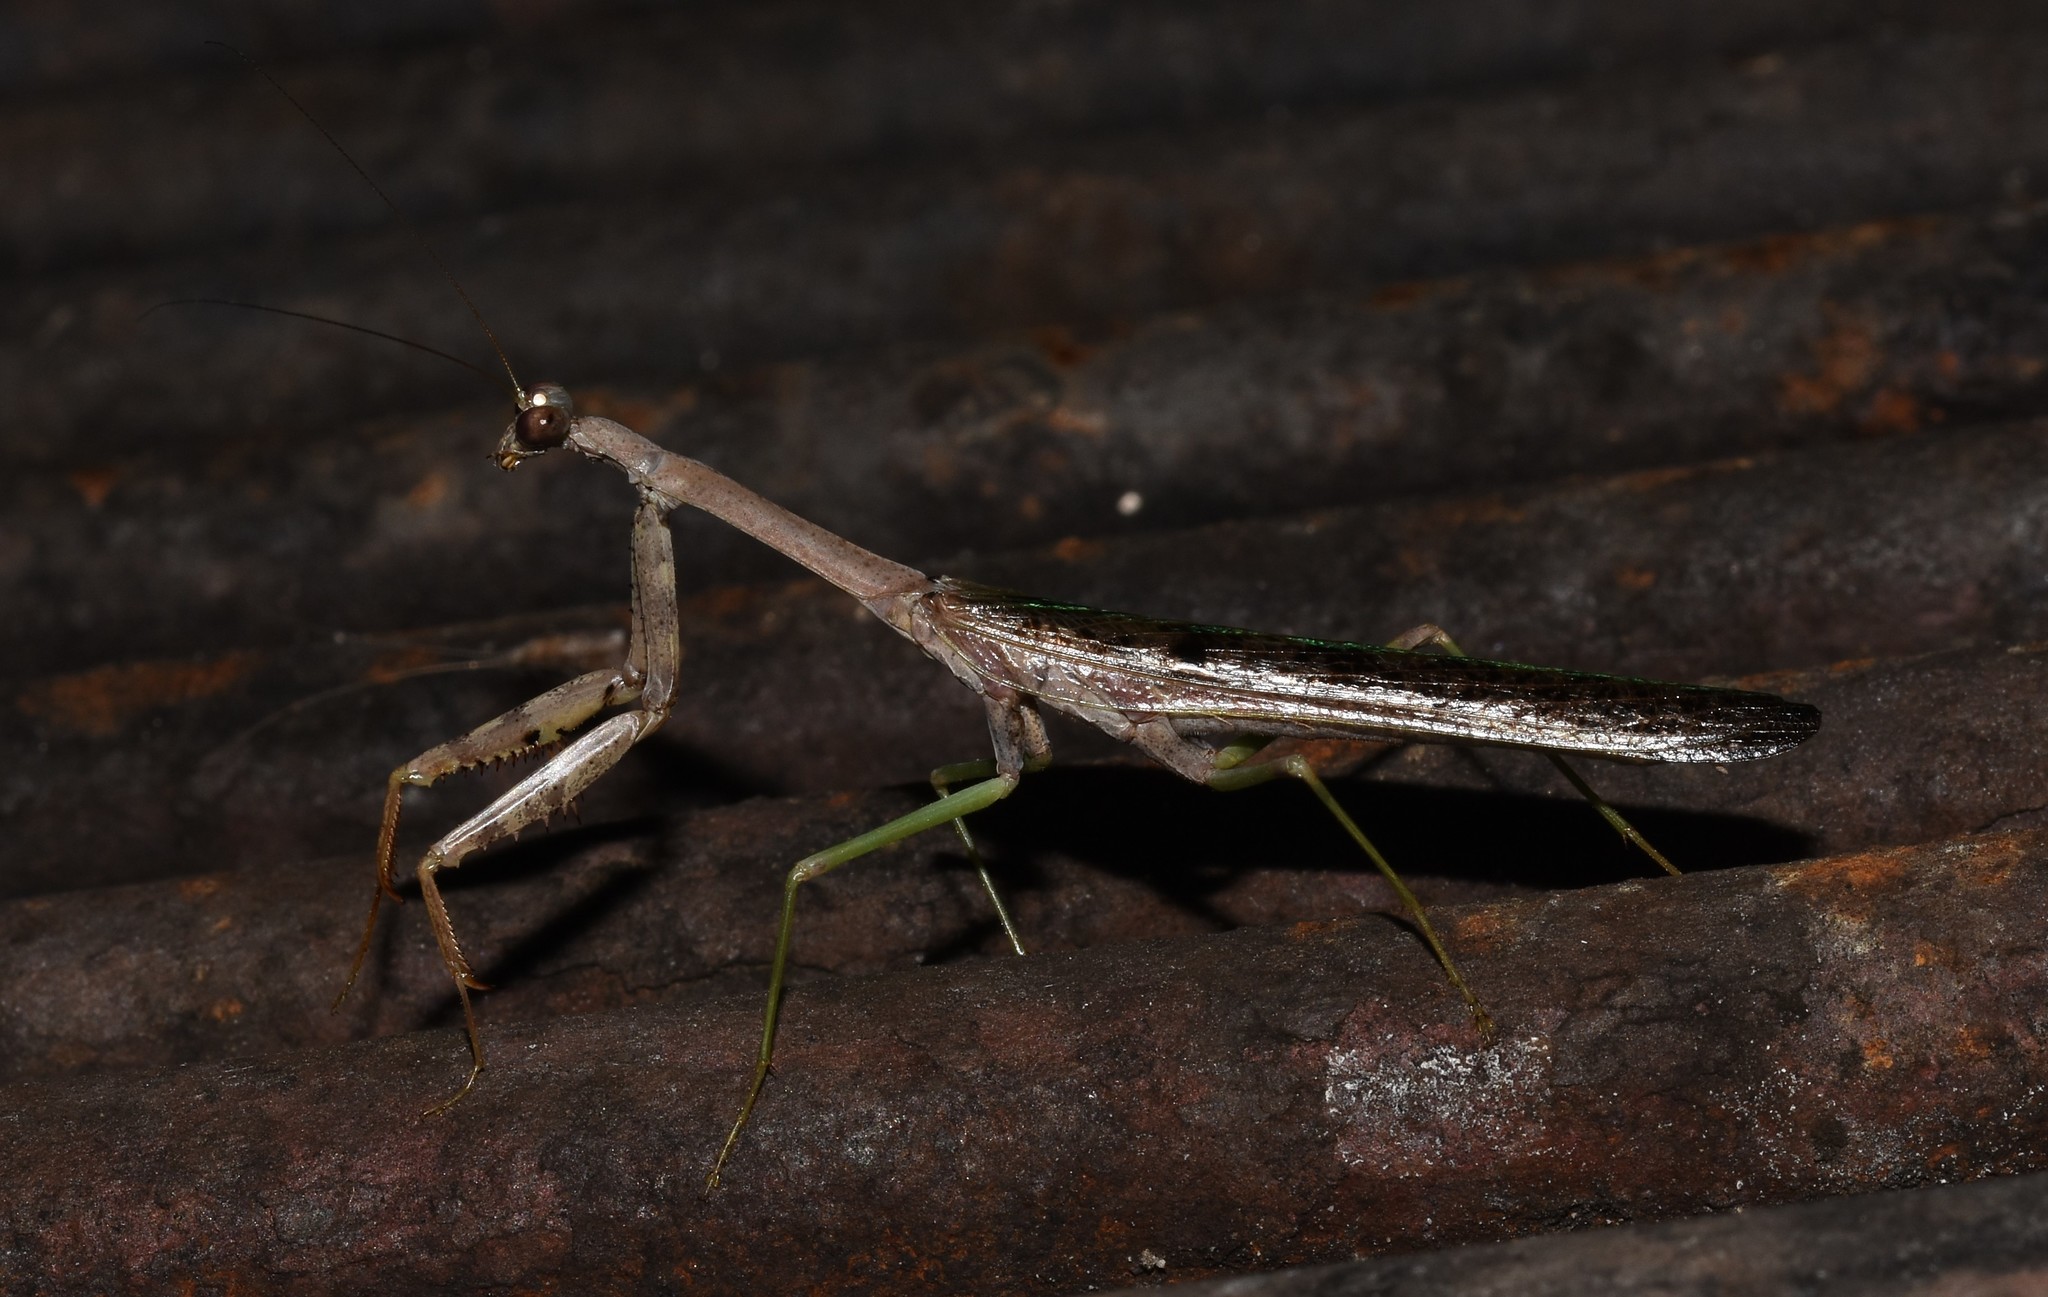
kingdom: Animalia
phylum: Arthropoda
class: Insecta
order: Mantodea
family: Mantidae
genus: Stagmomantis
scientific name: Stagmomantis carolina
